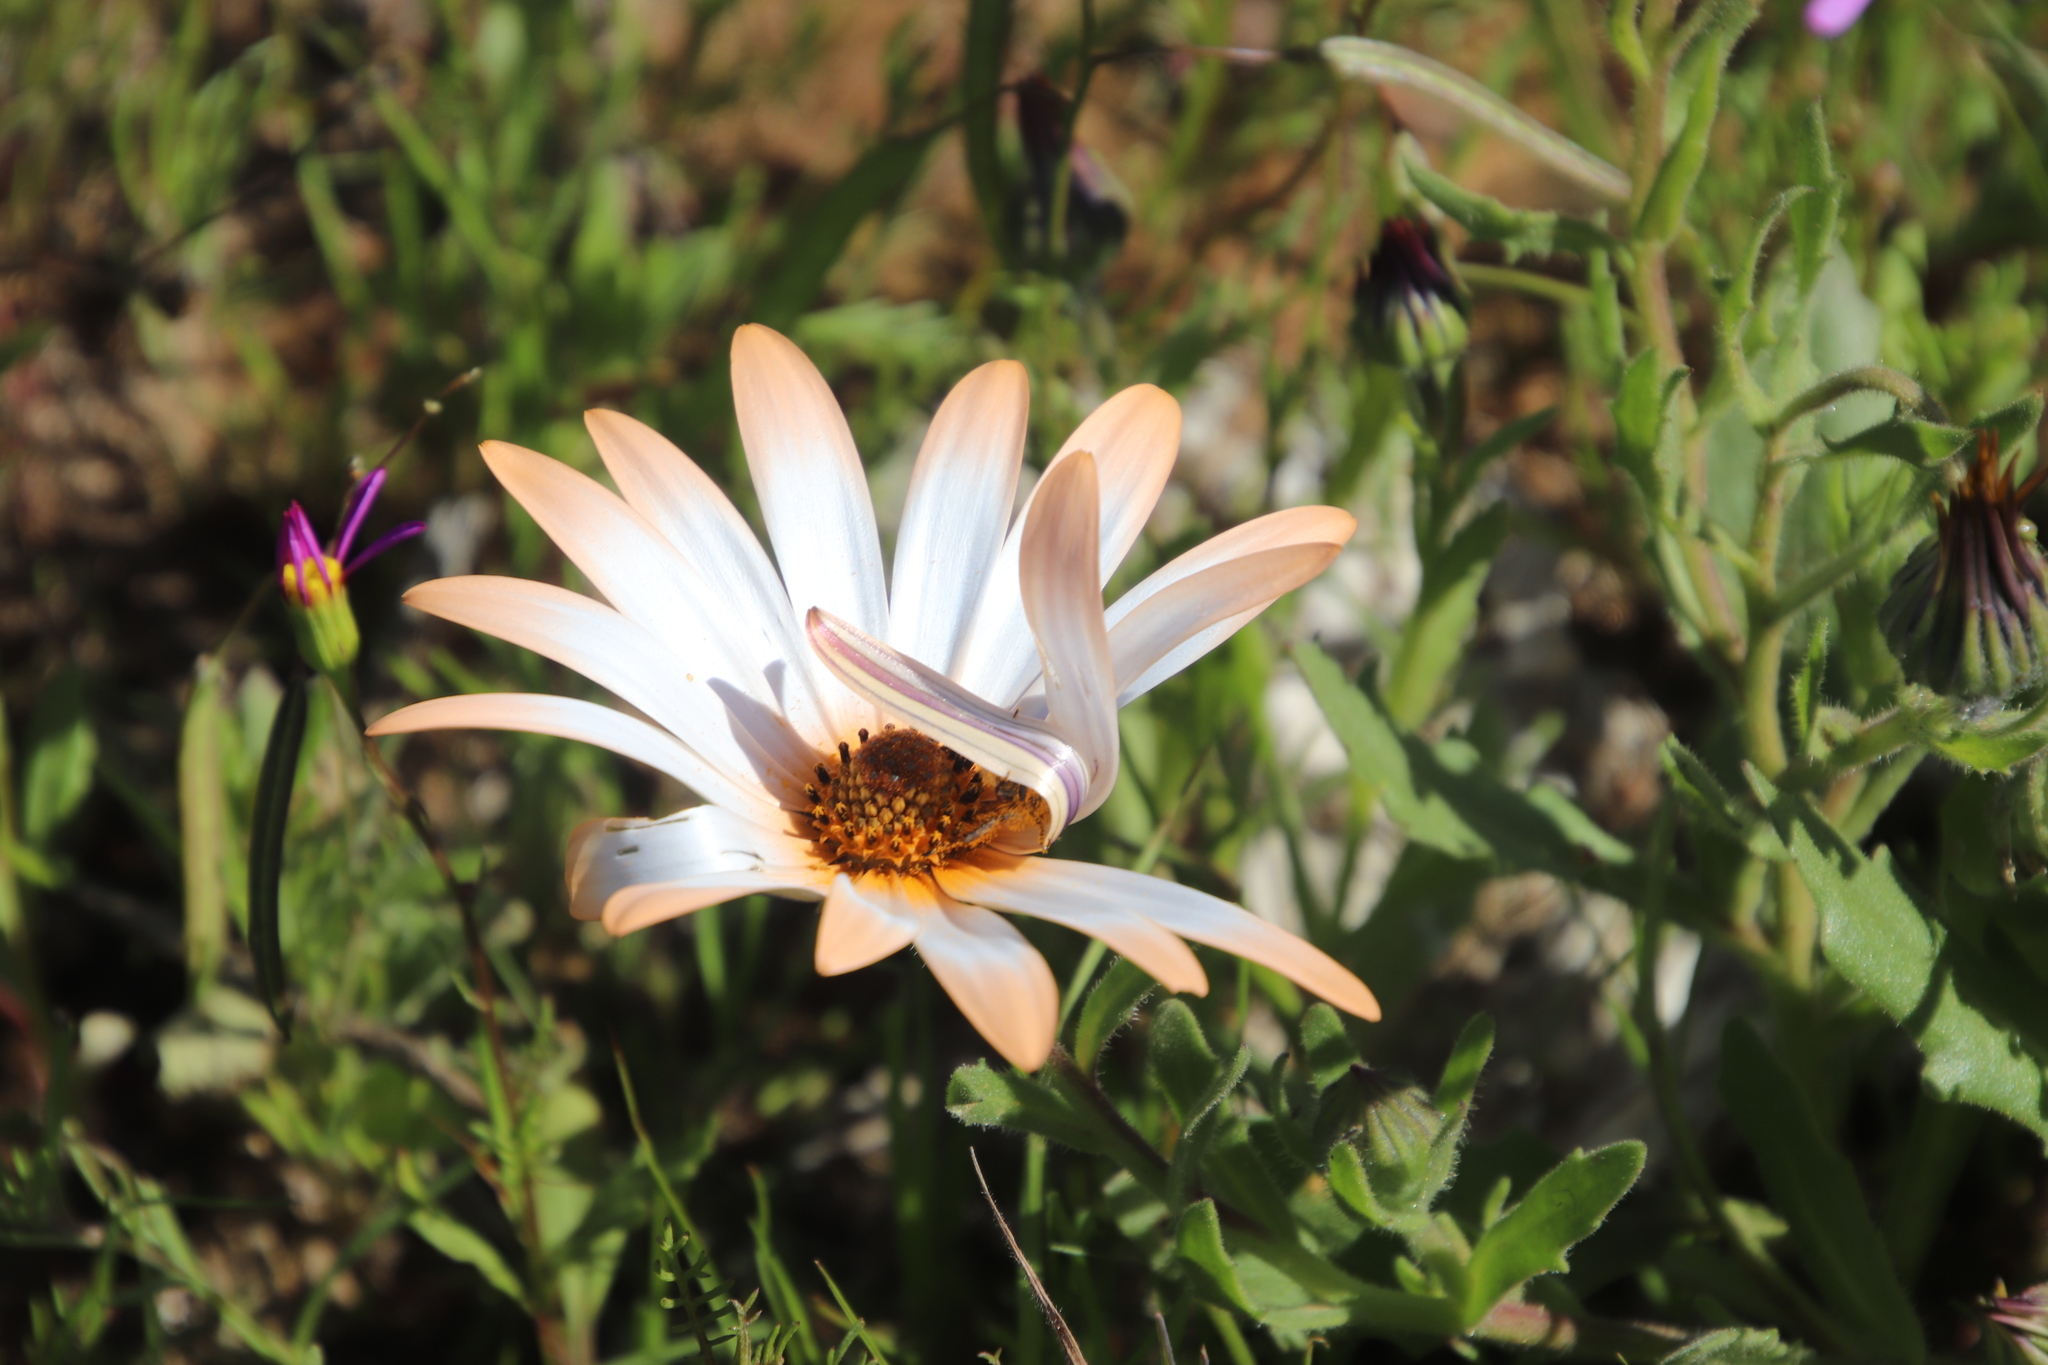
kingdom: Plantae
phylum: Tracheophyta
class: Magnoliopsida
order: Asterales
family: Asteraceae
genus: Dimorphotheca
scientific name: Dimorphotheca sinuata
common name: Glandular cape marigold
